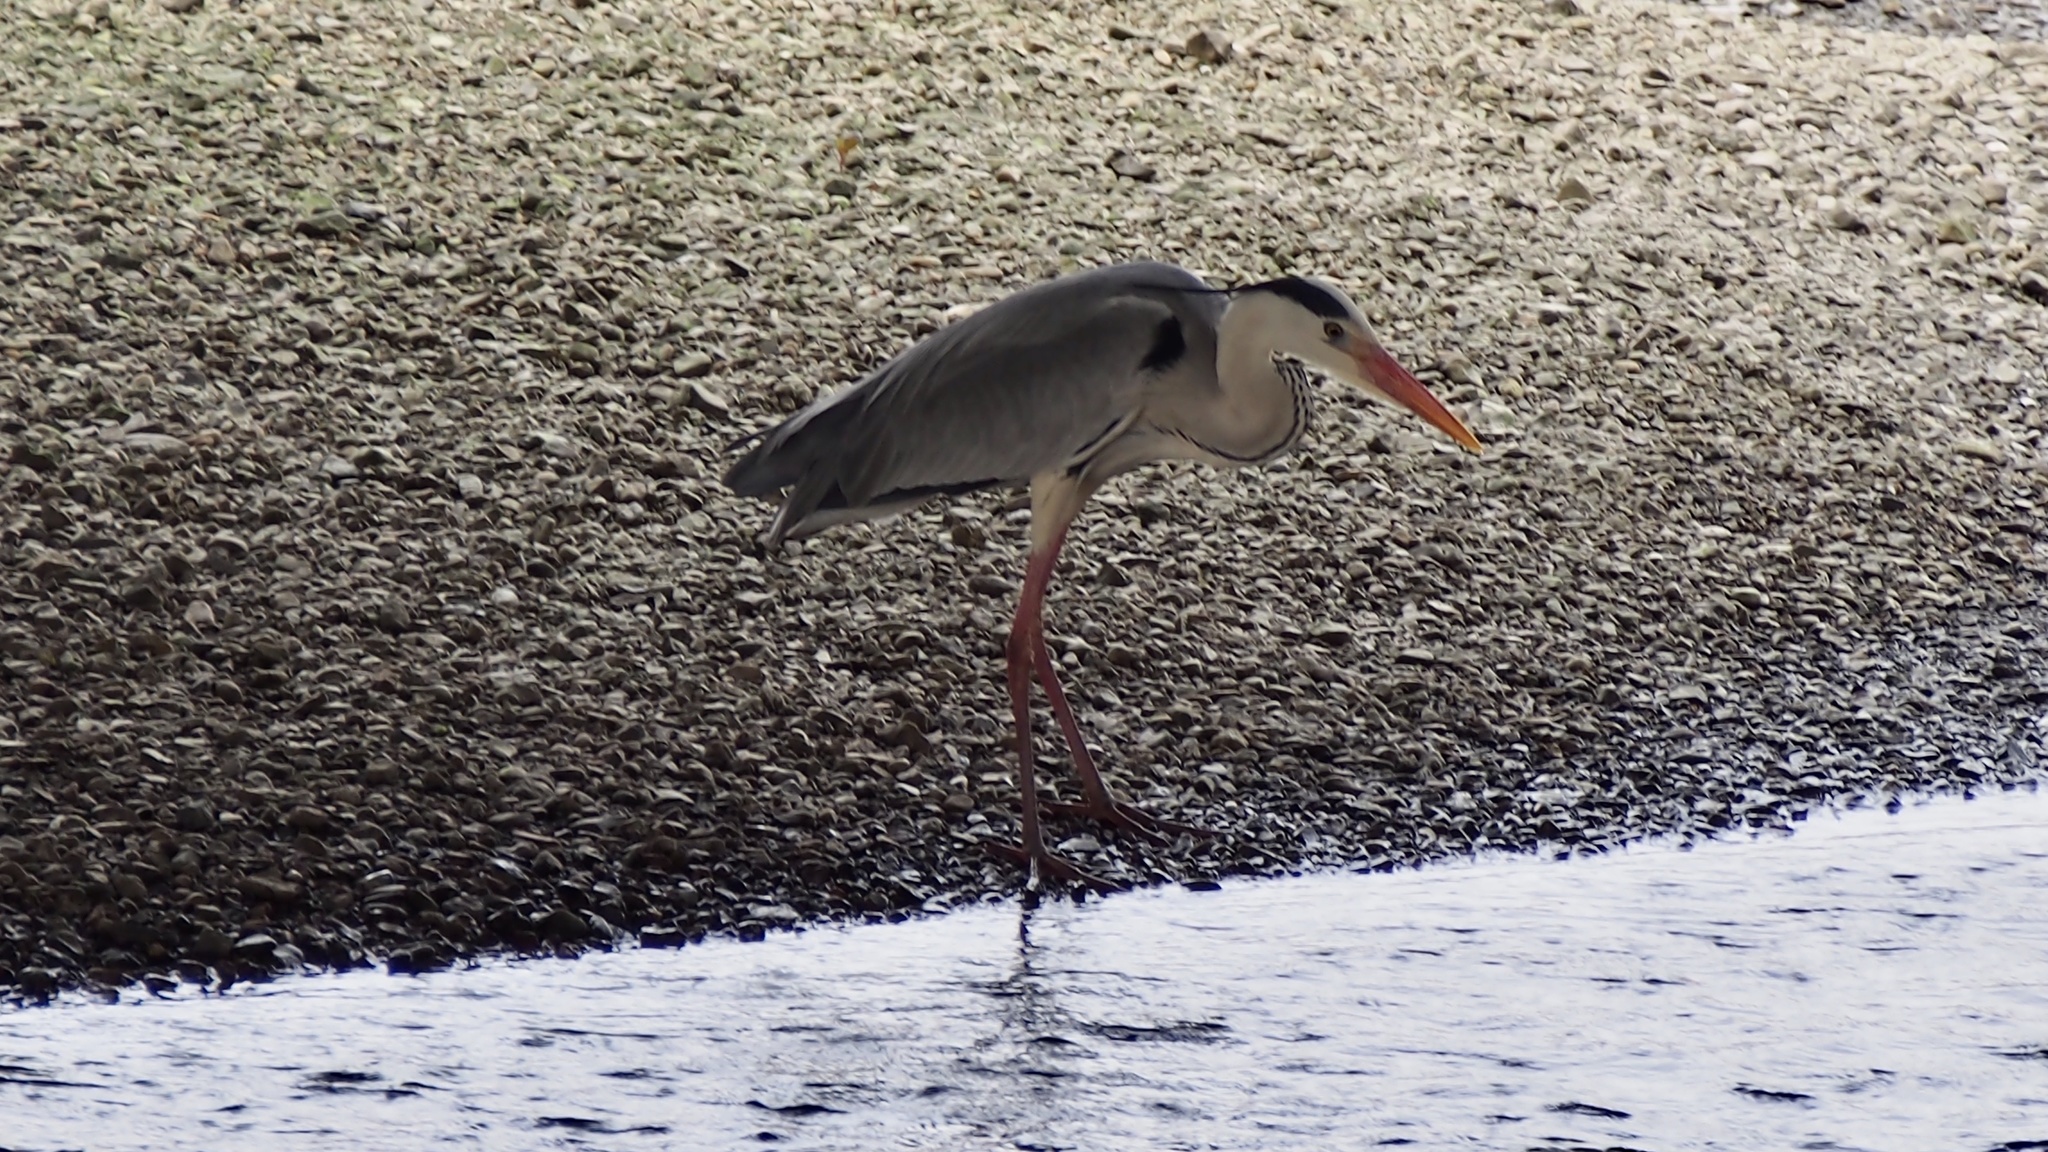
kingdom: Animalia
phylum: Chordata
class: Aves
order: Pelecaniformes
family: Ardeidae
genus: Ardea
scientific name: Ardea cinerea
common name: Grey heron
